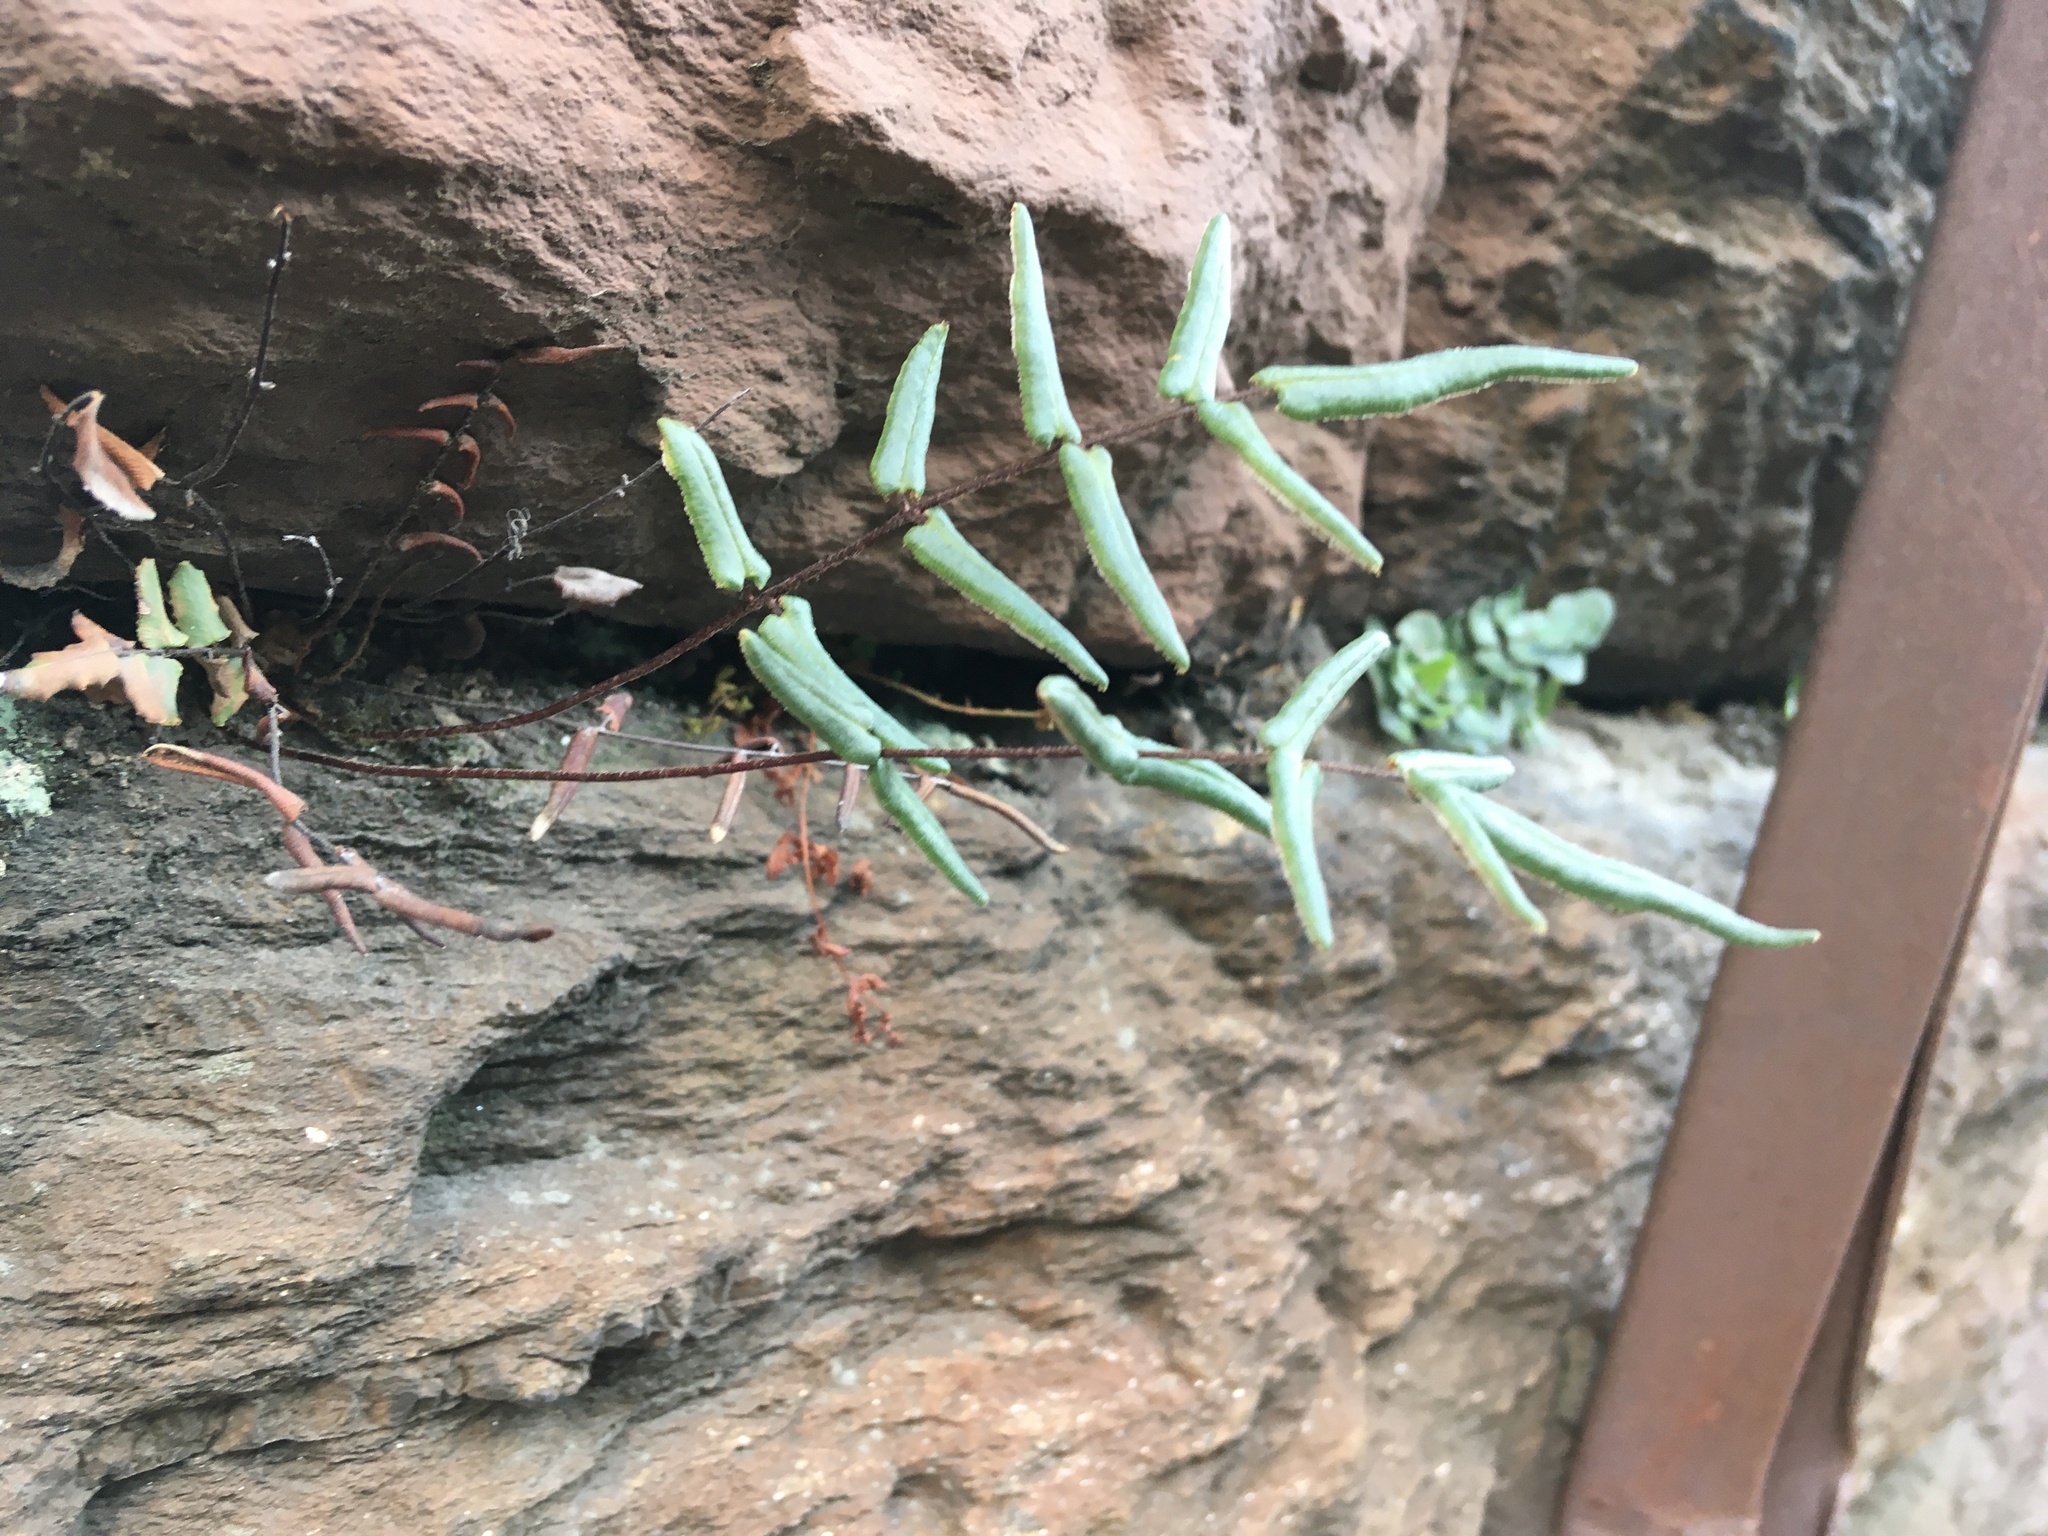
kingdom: Plantae
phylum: Tracheophyta
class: Polypodiopsida
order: Polypodiales
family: Pteridaceae
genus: Pellaea
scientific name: Pellaea atropurpurea
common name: Hairy cliffbrake
